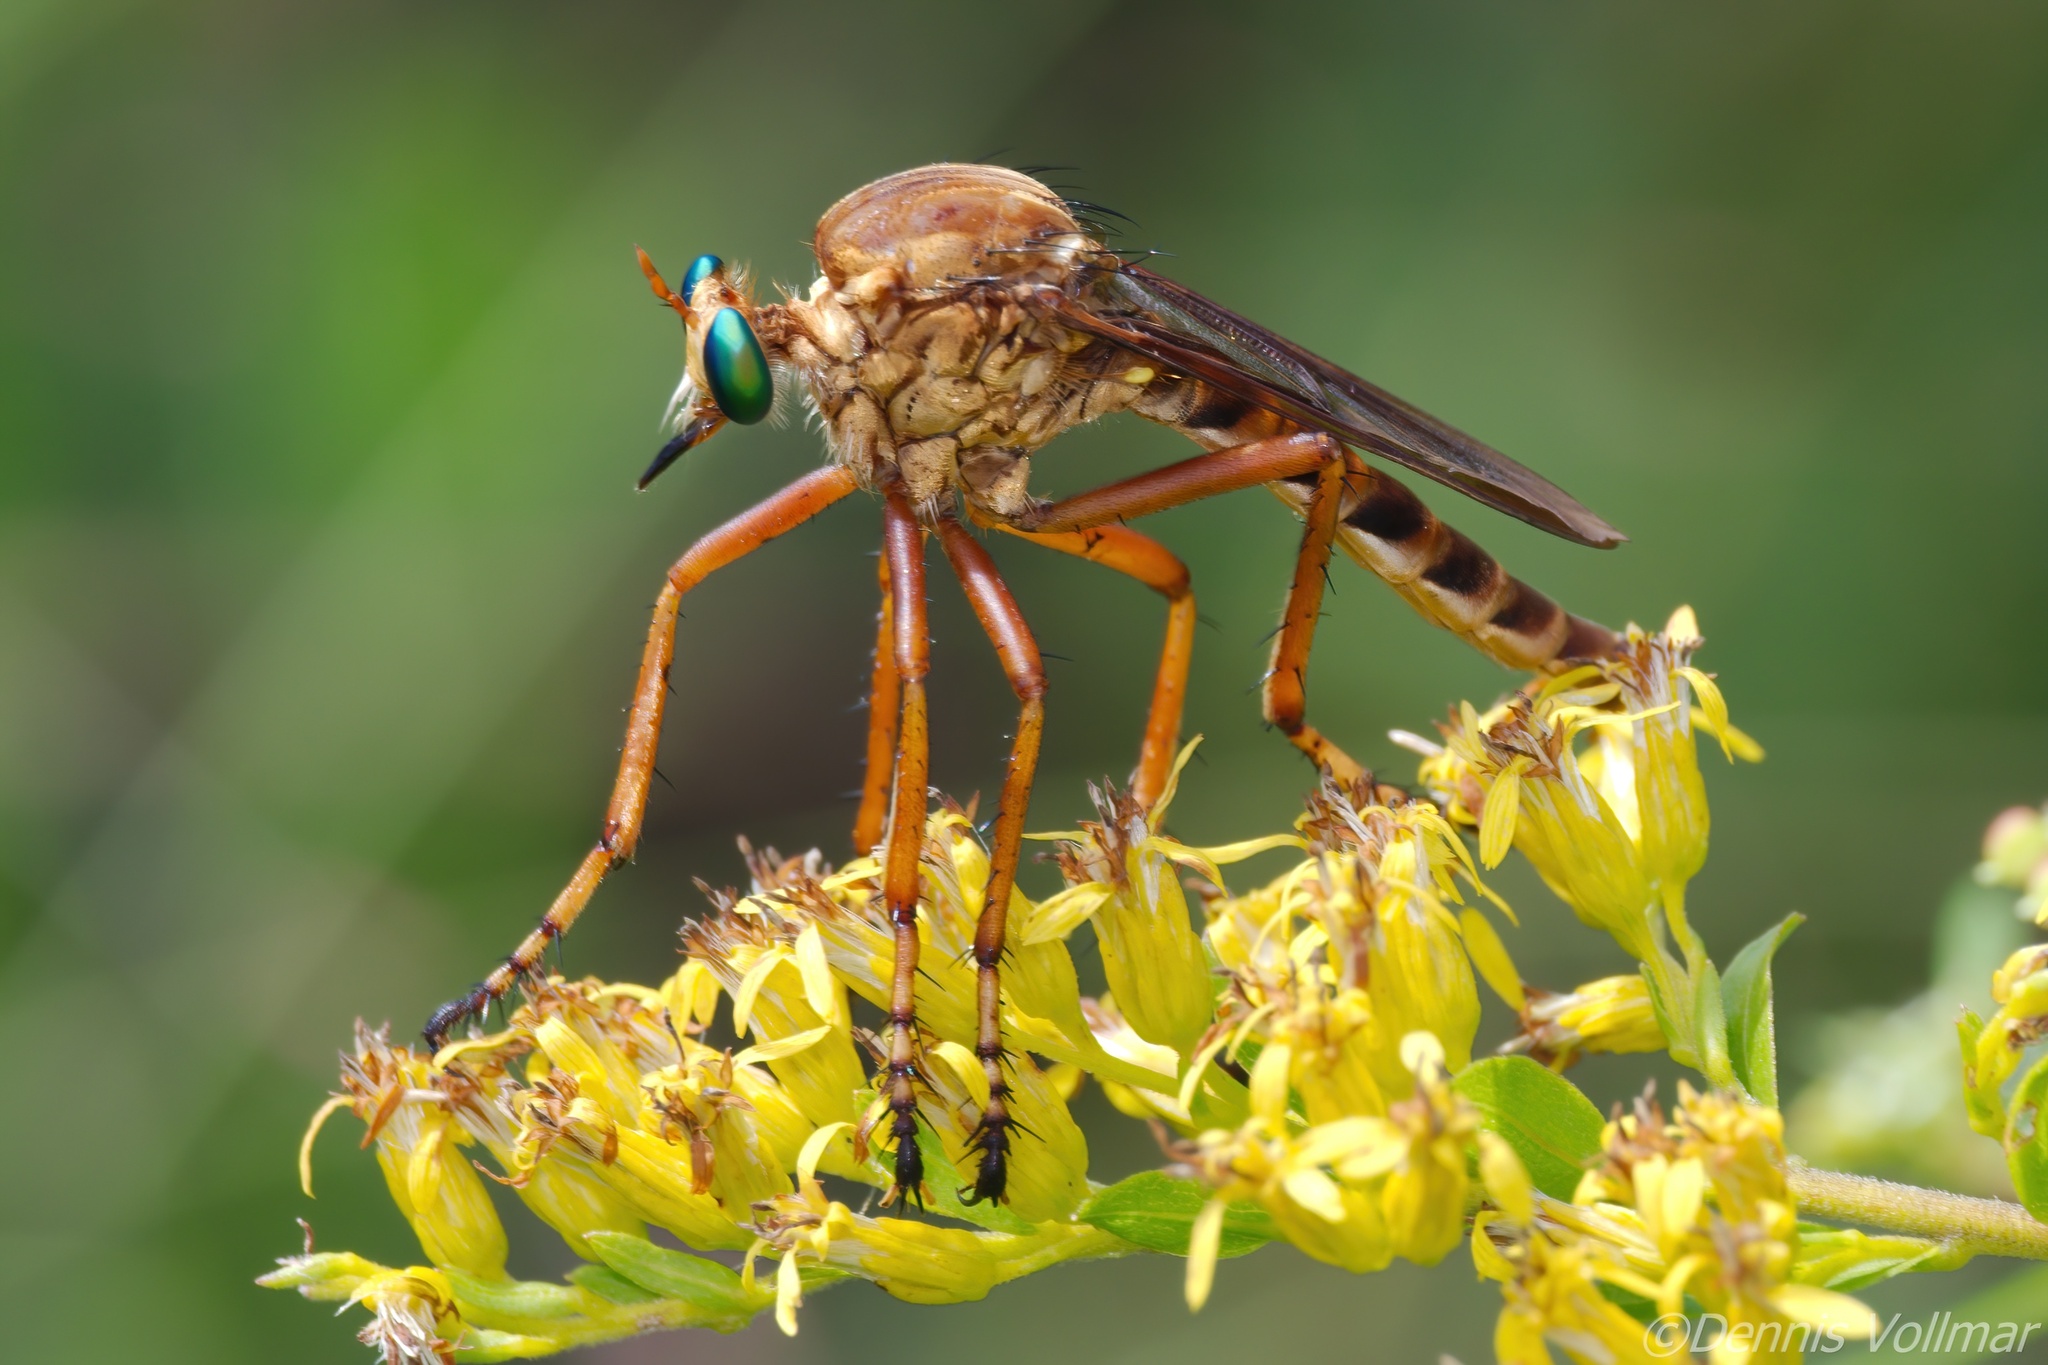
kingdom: Animalia
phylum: Arthropoda
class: Insecta
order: Diptera
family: Asilidae
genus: Diogmites
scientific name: Diogmites crudelis
